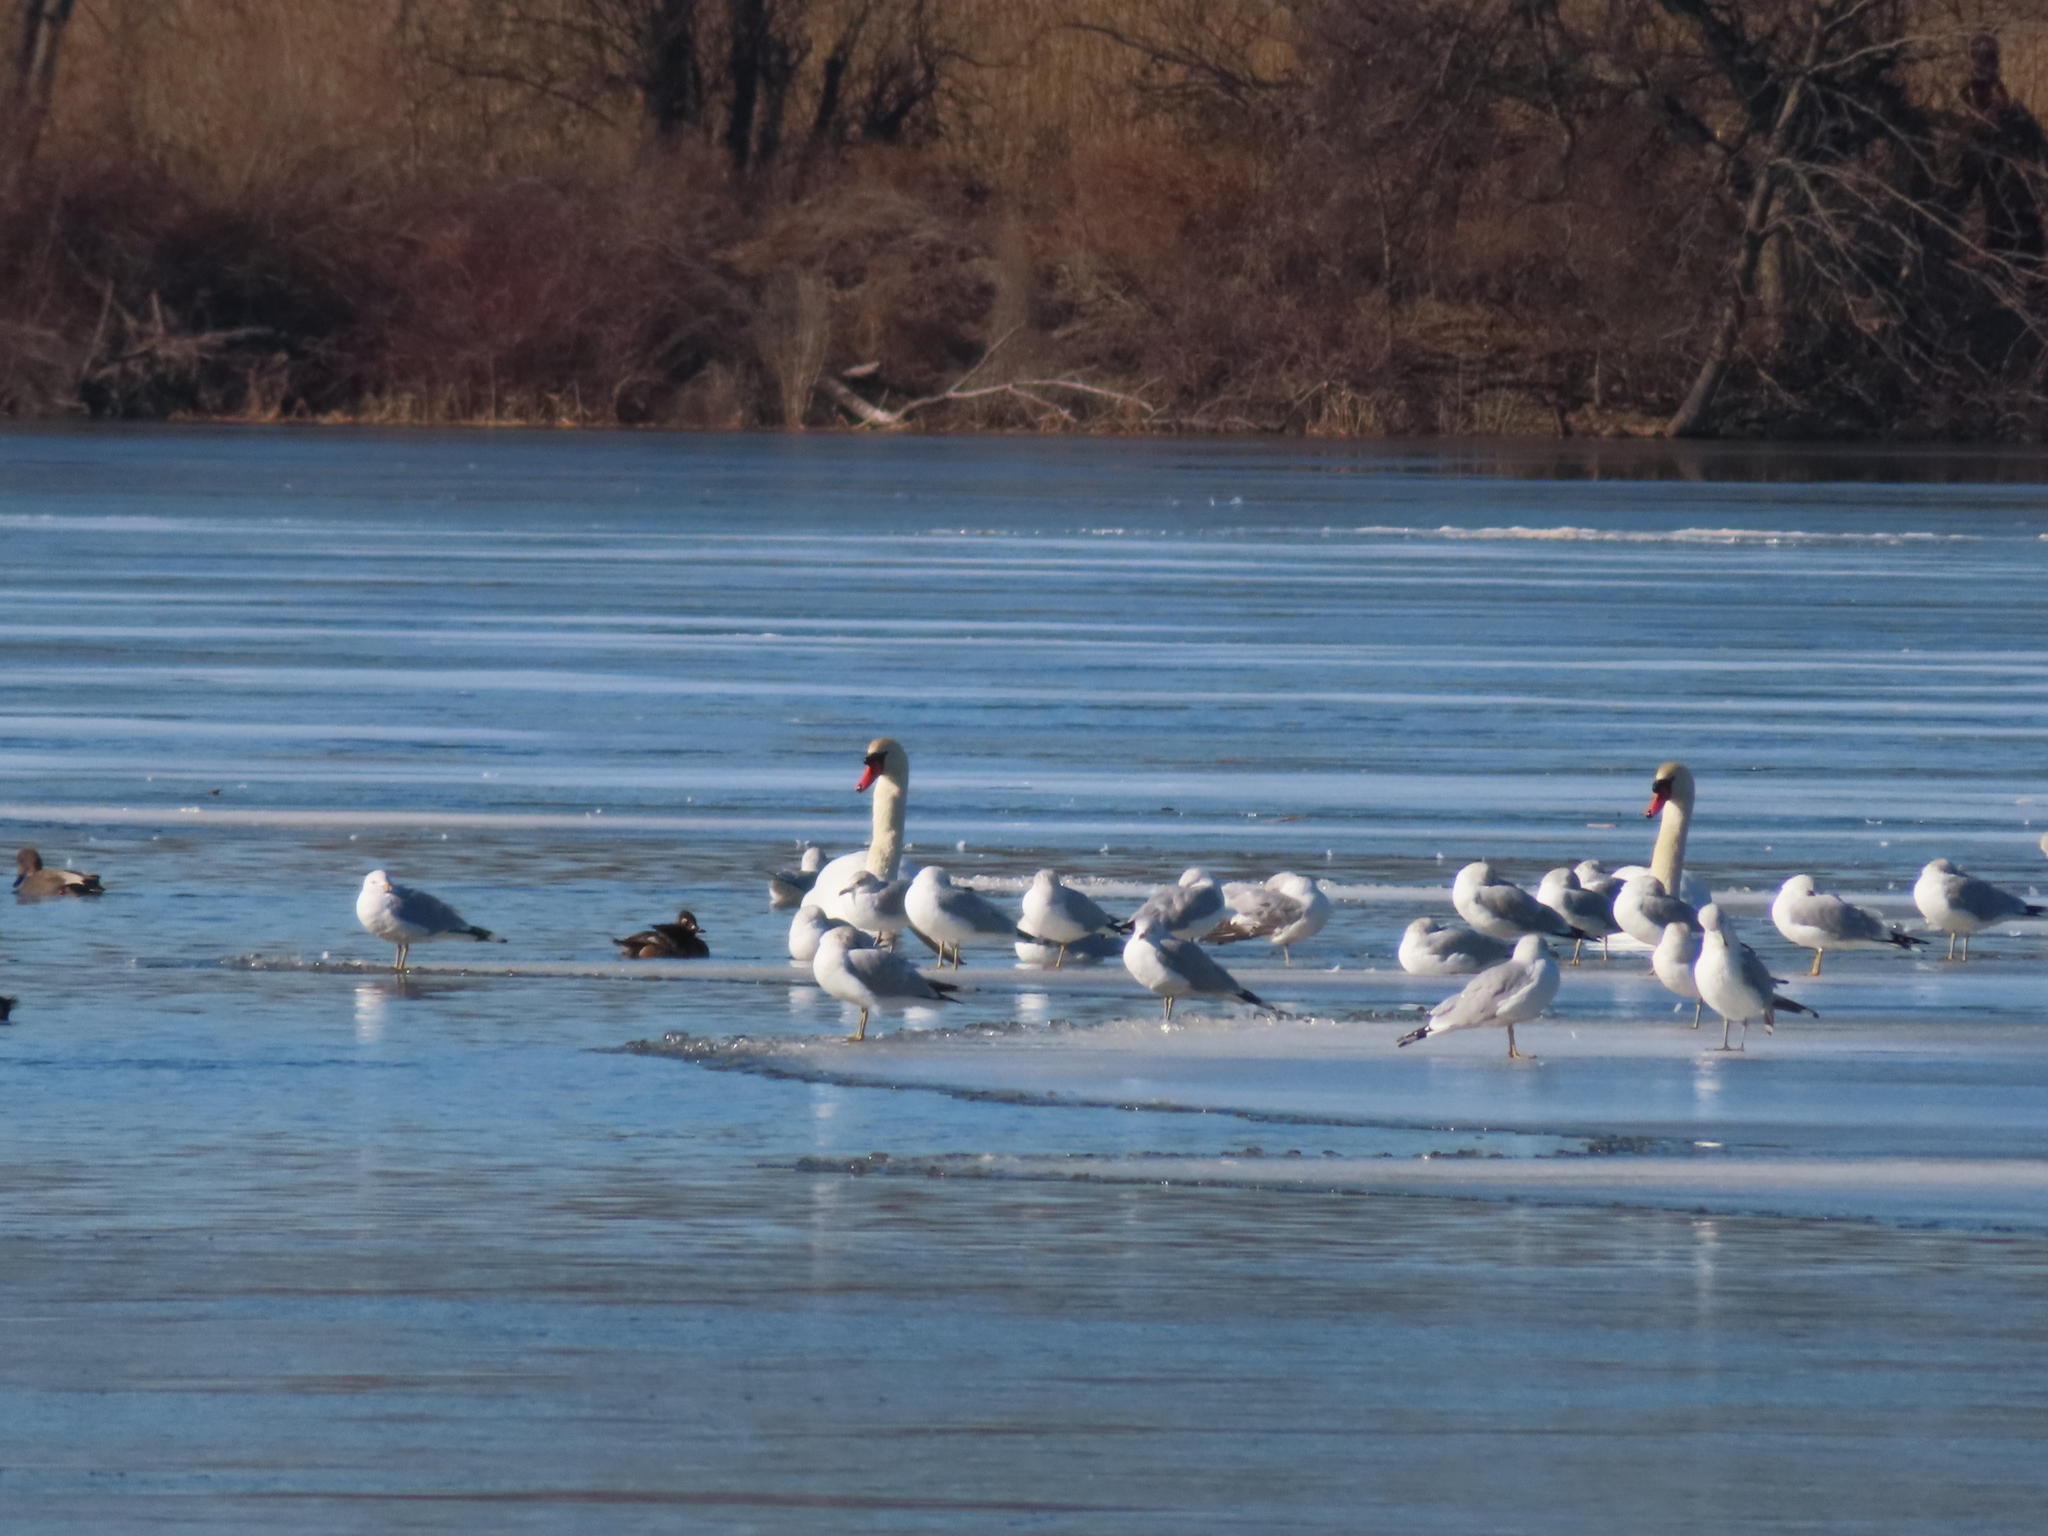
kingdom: Animalia
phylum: Chordata
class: Aves
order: Charadriiformes
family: Laridae
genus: Larus
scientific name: Larus delawarensis
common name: Ring-billed gull
